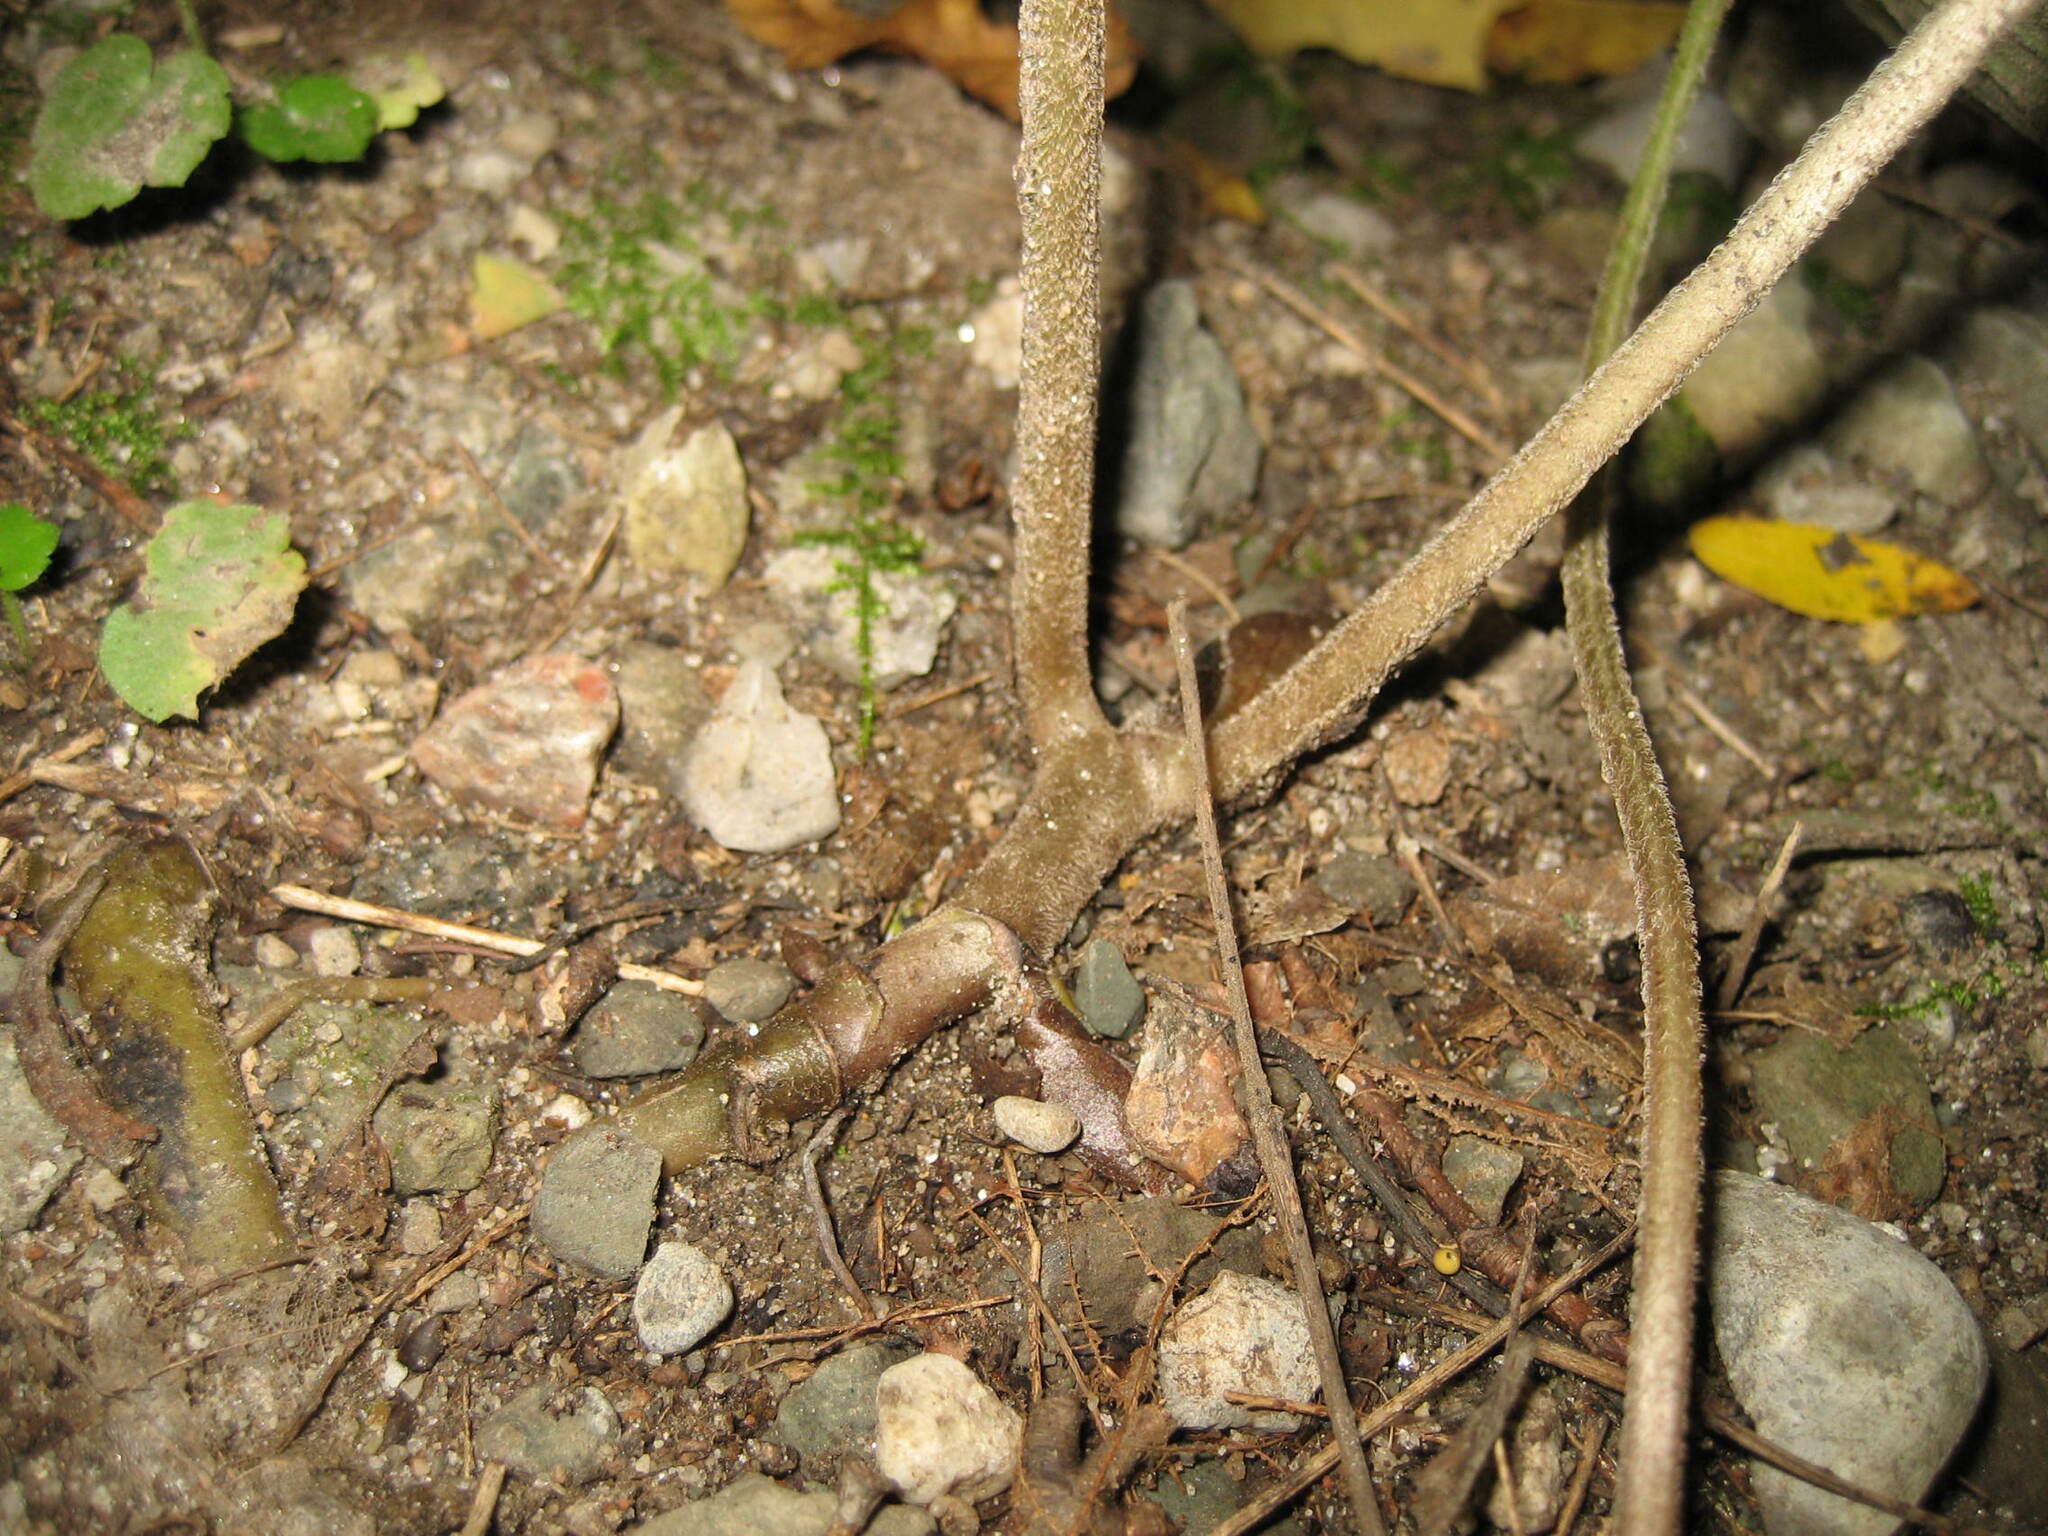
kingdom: Plantae
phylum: Tracheophyta
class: Magnoliopsida
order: Piperales
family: Aristolochiaceae
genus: Asarum
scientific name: Asarum canadense
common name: Wild ginger
